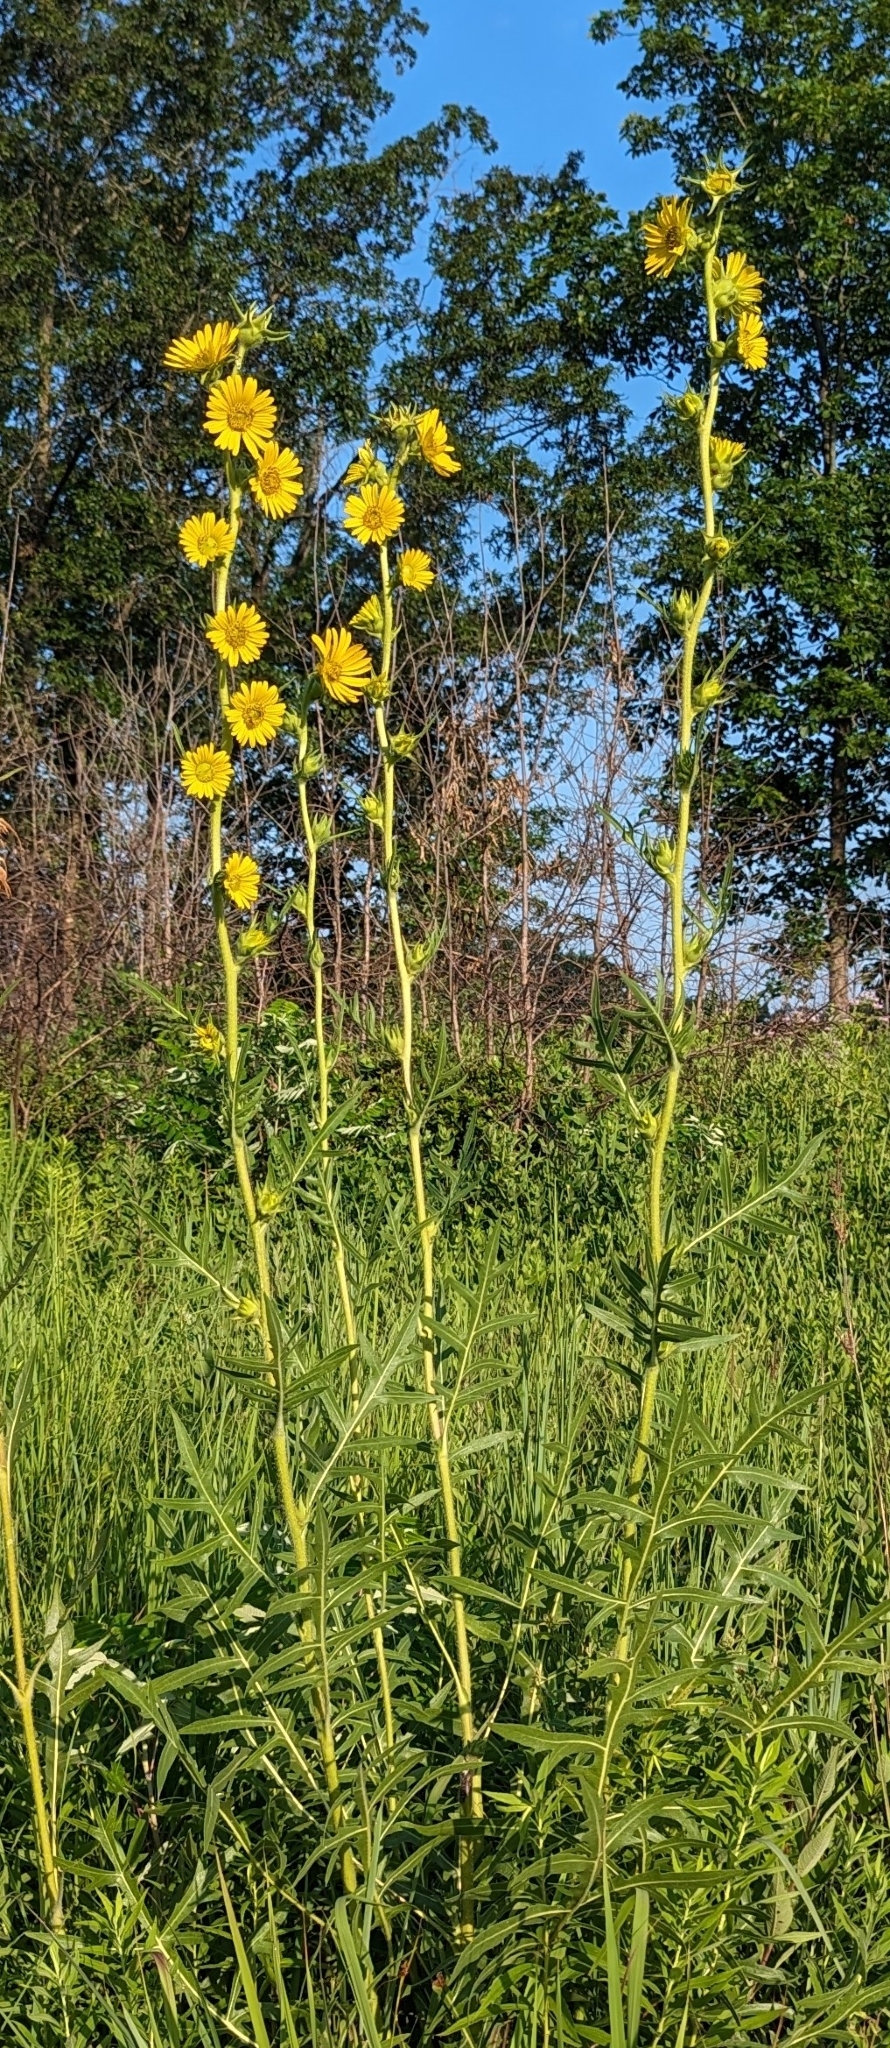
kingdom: Plantae
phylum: Tracheophyta
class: Magnoliopsida
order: Asterales
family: Asteraceae
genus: Silphium
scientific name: Silphium laciniatum
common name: Polarplant
